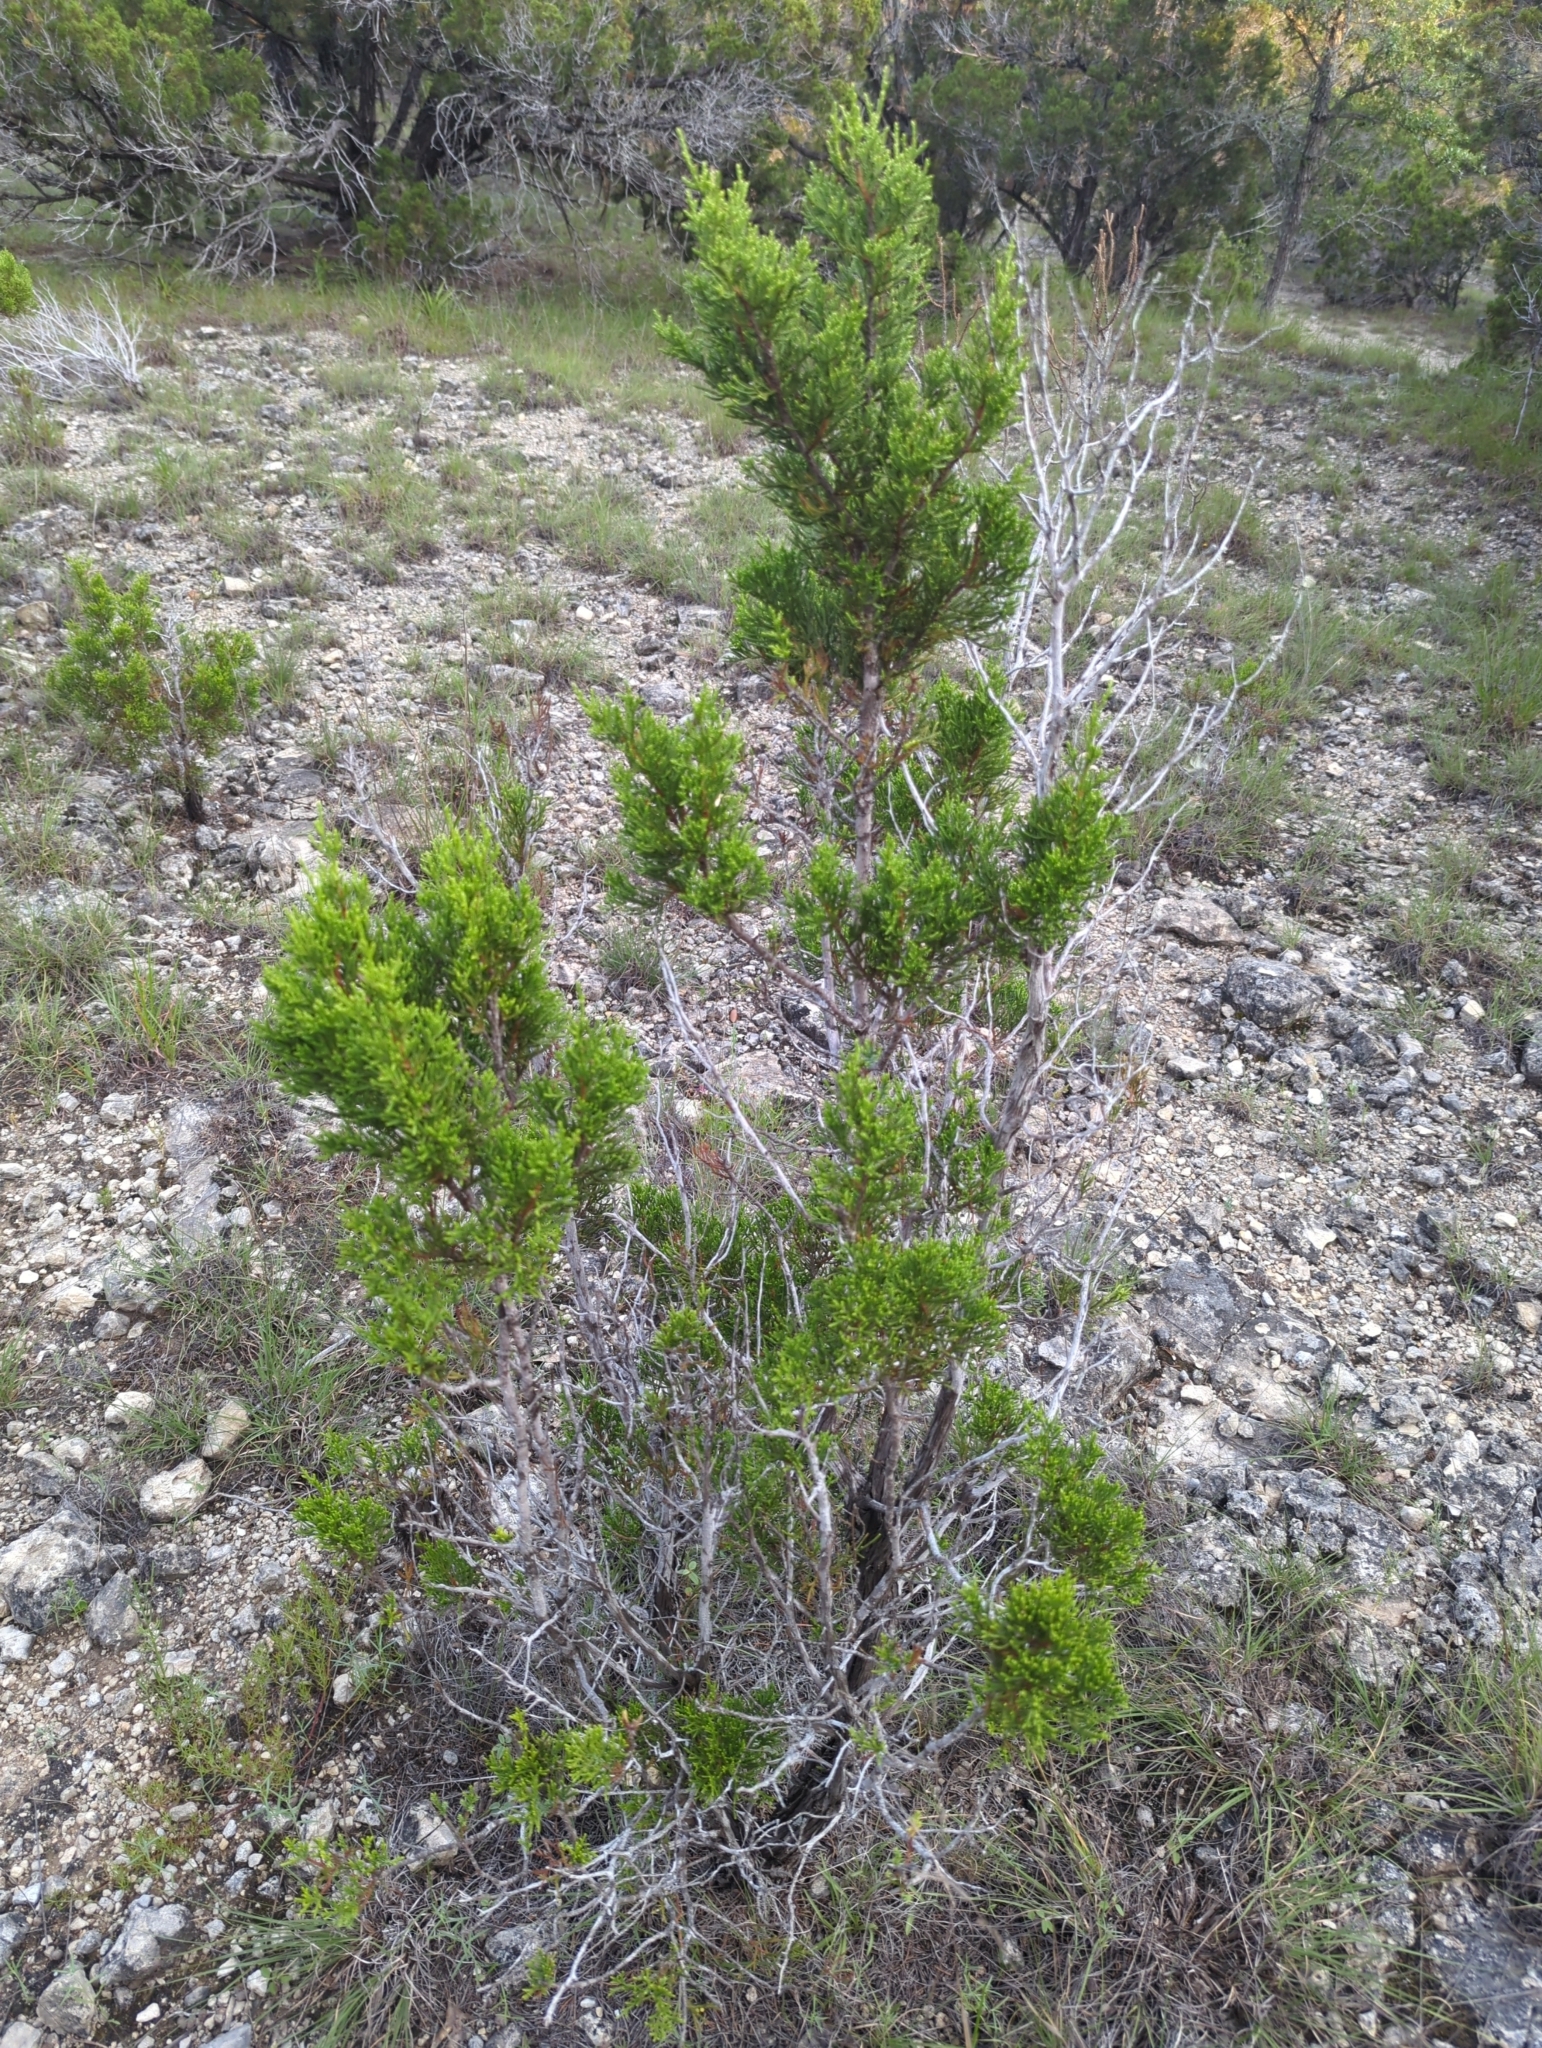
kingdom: Plantae
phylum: Tracheophyta
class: Pinopsida
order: Pinales
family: Cupressaceae
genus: Juniperus
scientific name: Juniperus ashei
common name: Mexican juniper
